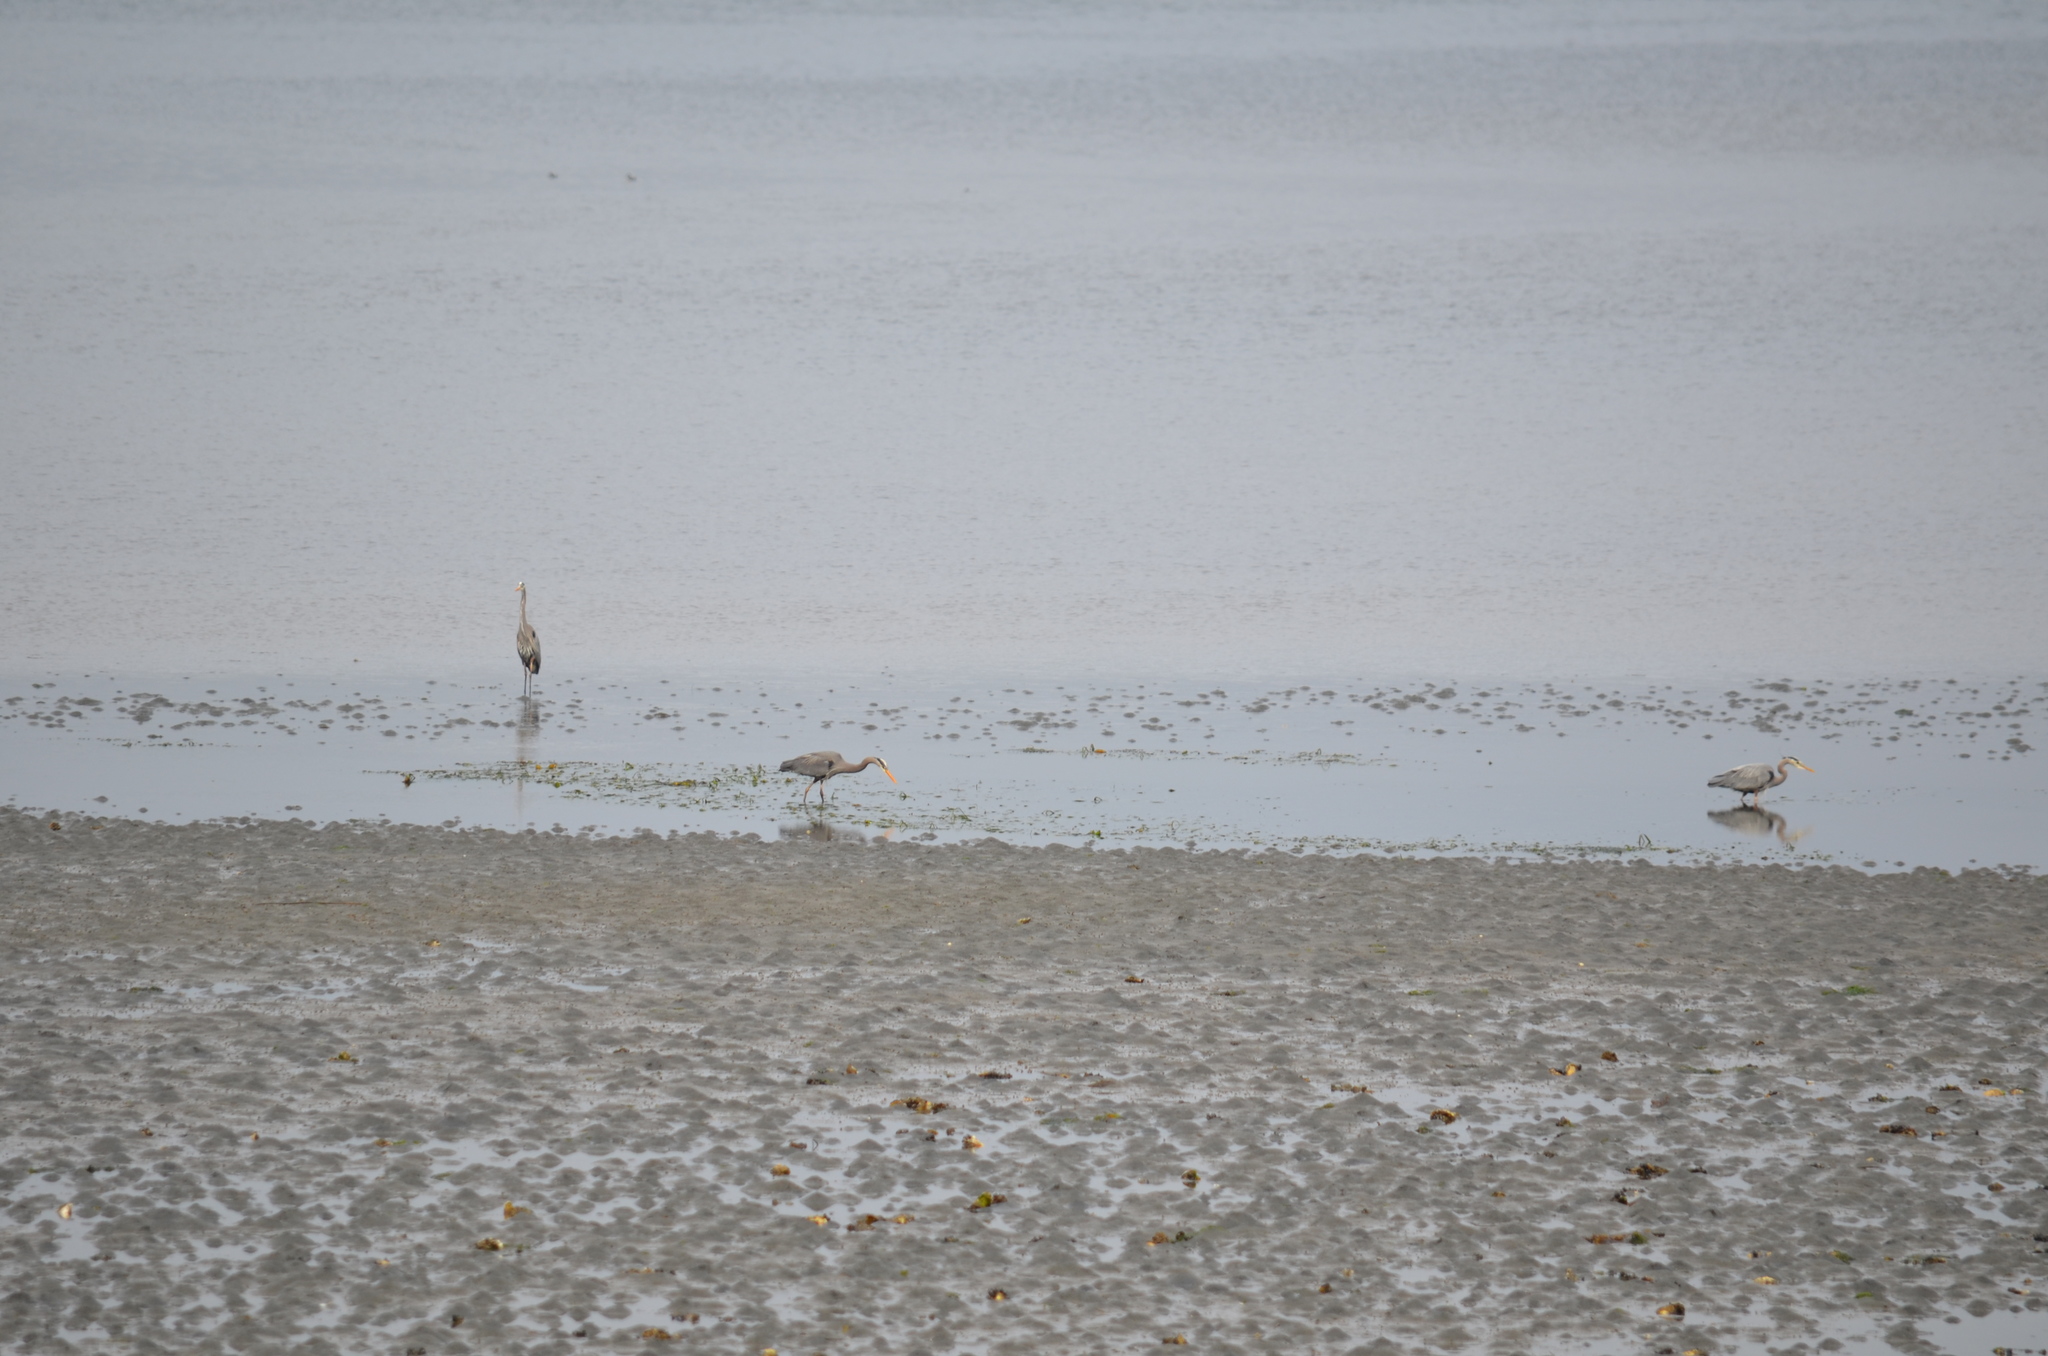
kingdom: Animalia
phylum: Chordata
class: Aves
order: Pelecaniformes
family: Ardeidae
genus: Ardea
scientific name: Ardea herodias
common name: Great blue heron
